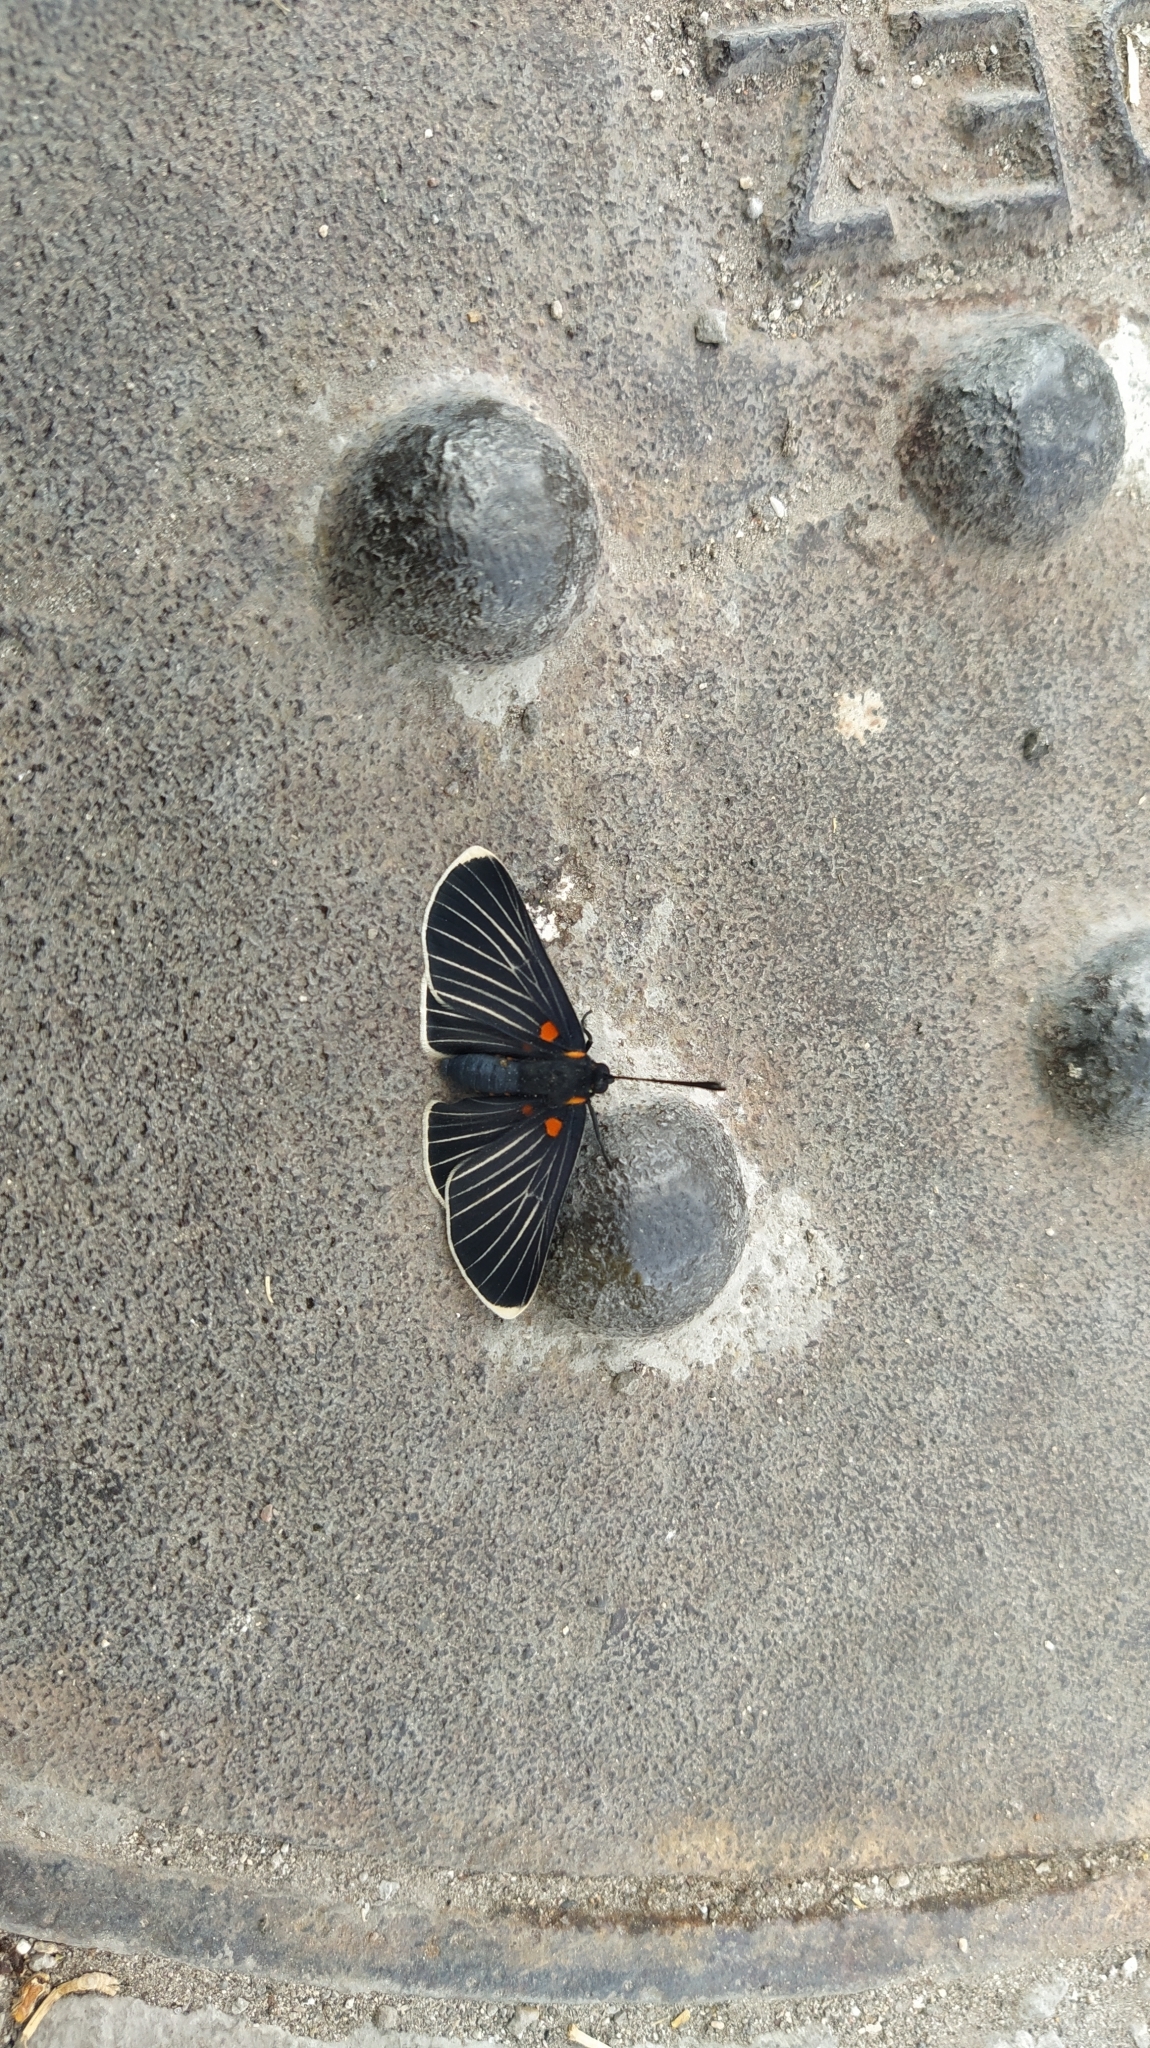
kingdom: Animalia
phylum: Arthropoda
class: Insecta
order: Lepidoptera
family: Lycaenidae
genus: Melanis
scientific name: Melanis
